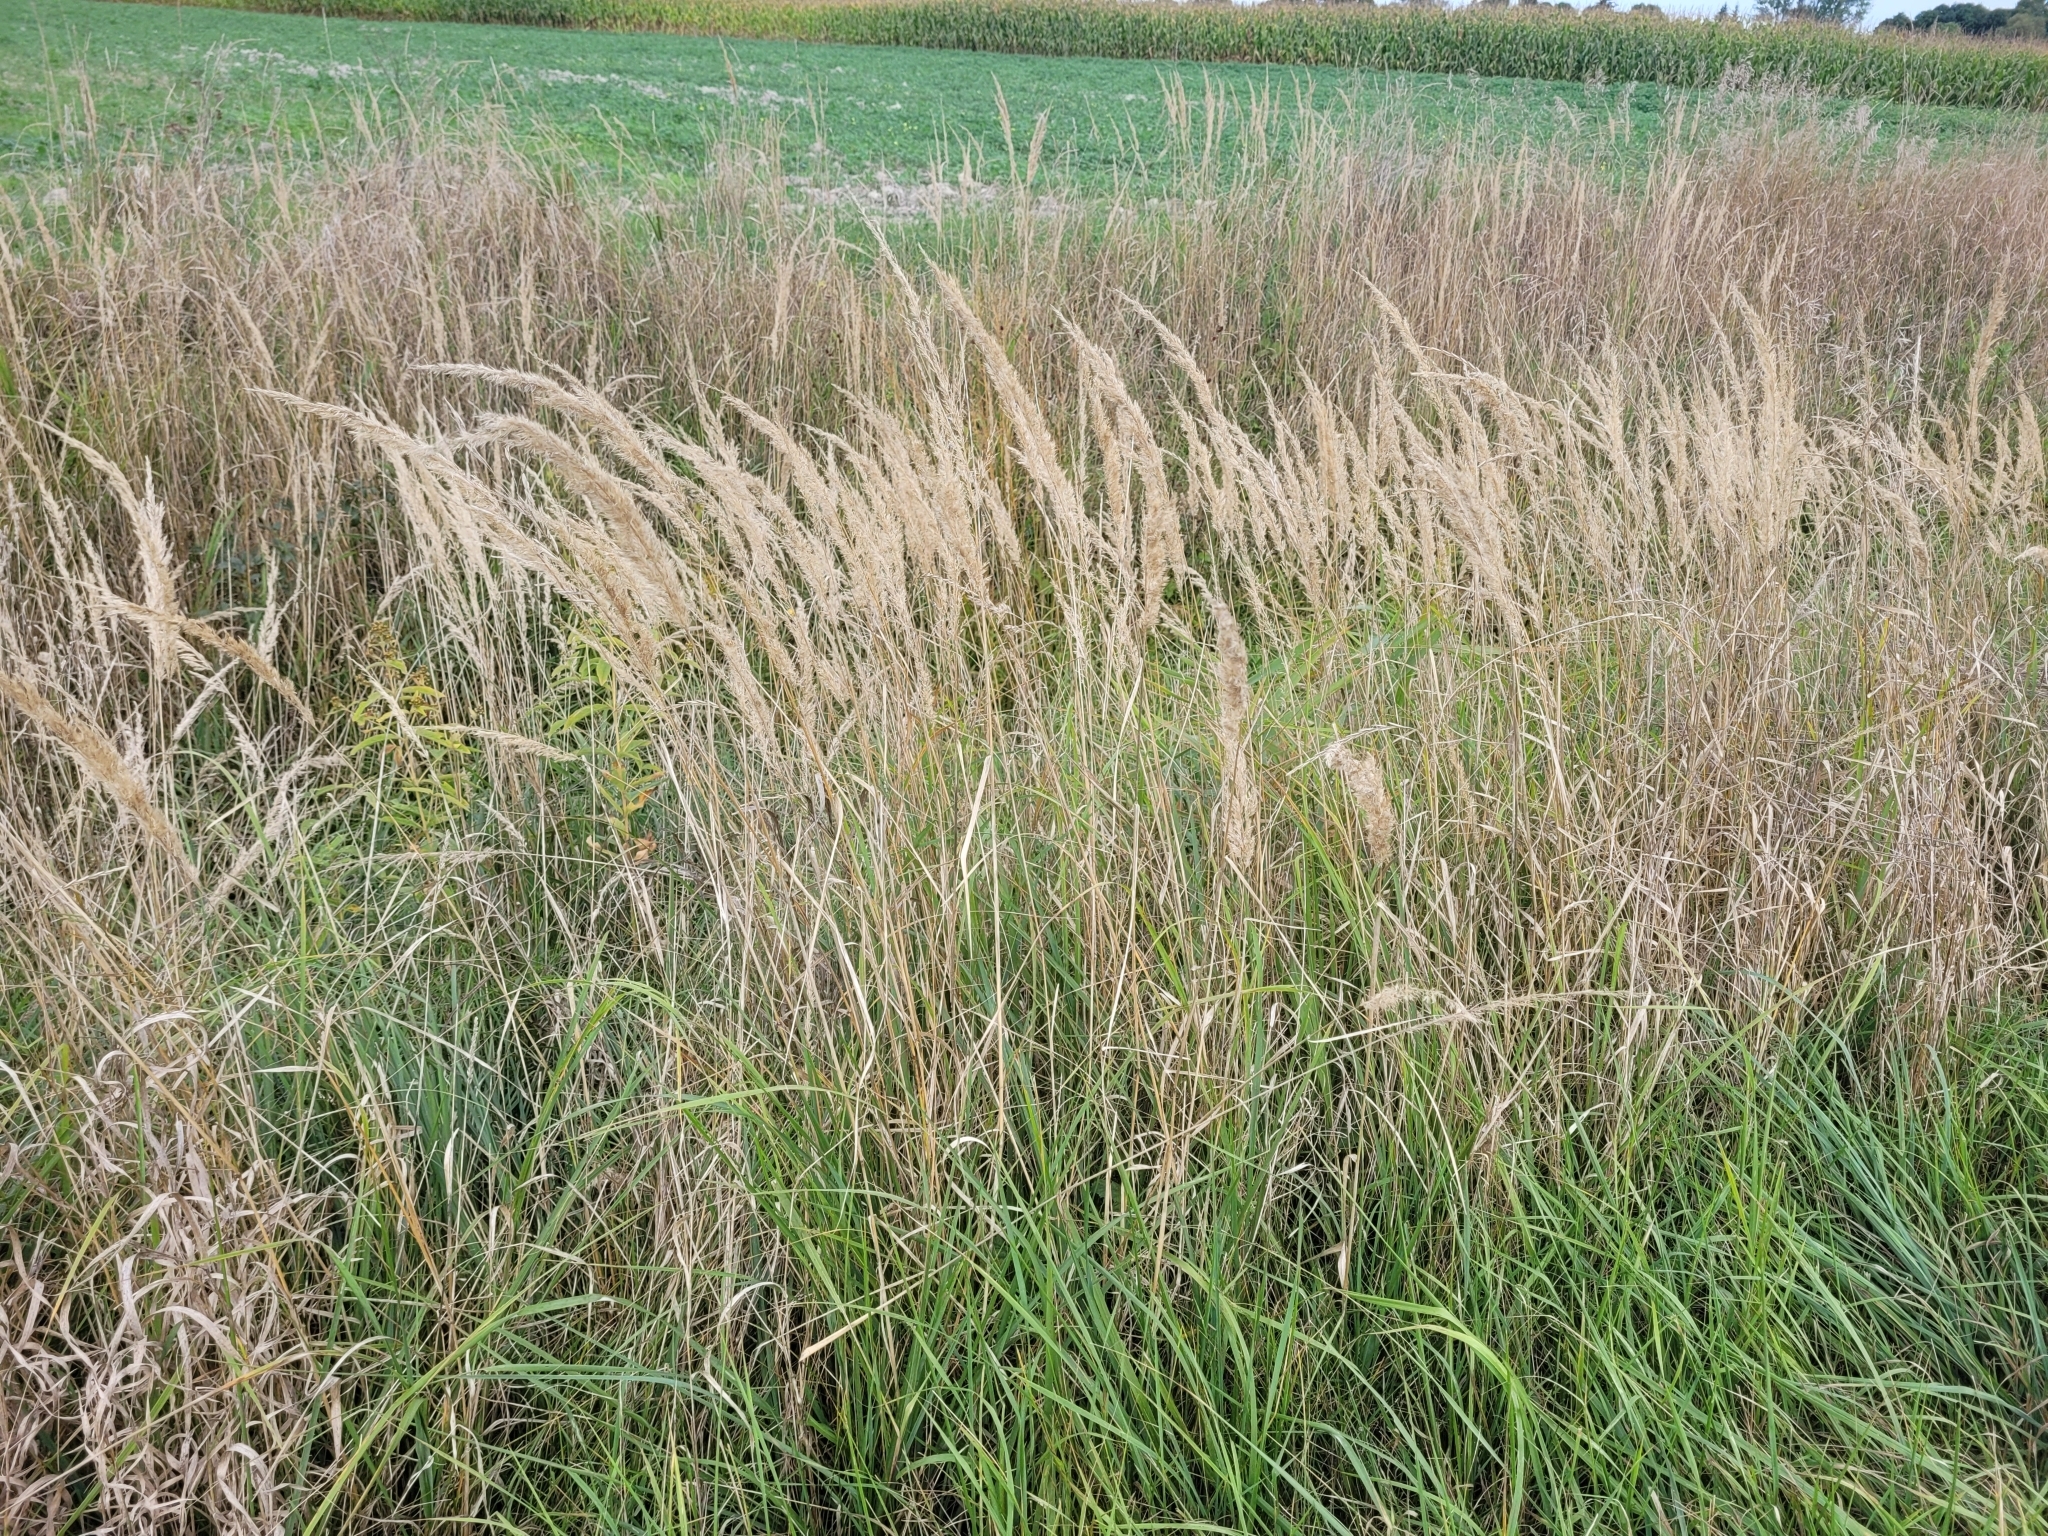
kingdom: Plantae
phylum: Tracheophyta
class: Liliopsida
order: Poales
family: Poaceae
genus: Calamagrostis
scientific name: Calamagrostis epigejos
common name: Wood small-reed
